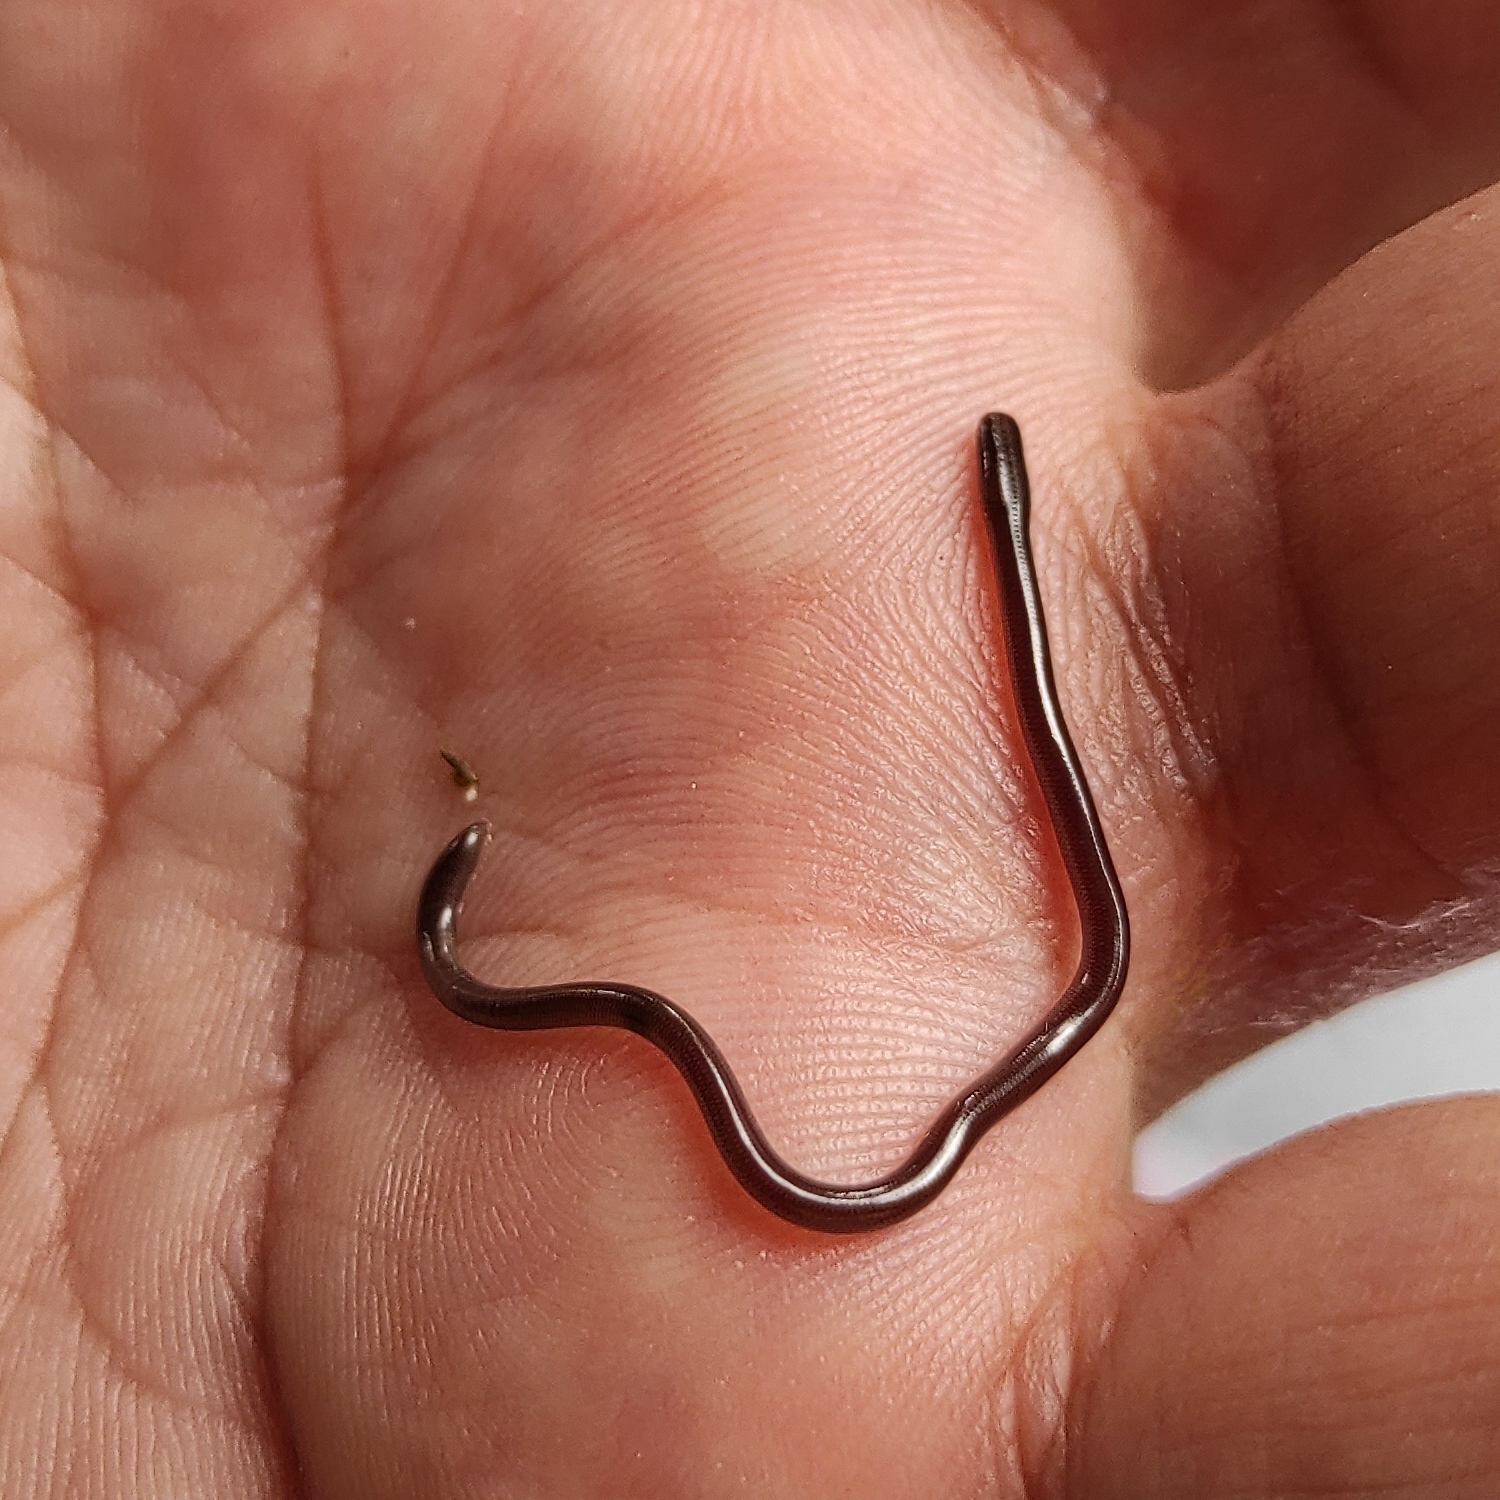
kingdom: Animalia
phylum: Chordata
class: Squamata
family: Typhlopidae
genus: Indotyphlops
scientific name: Indotyphlops braminus
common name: Brahminy blindsnake
